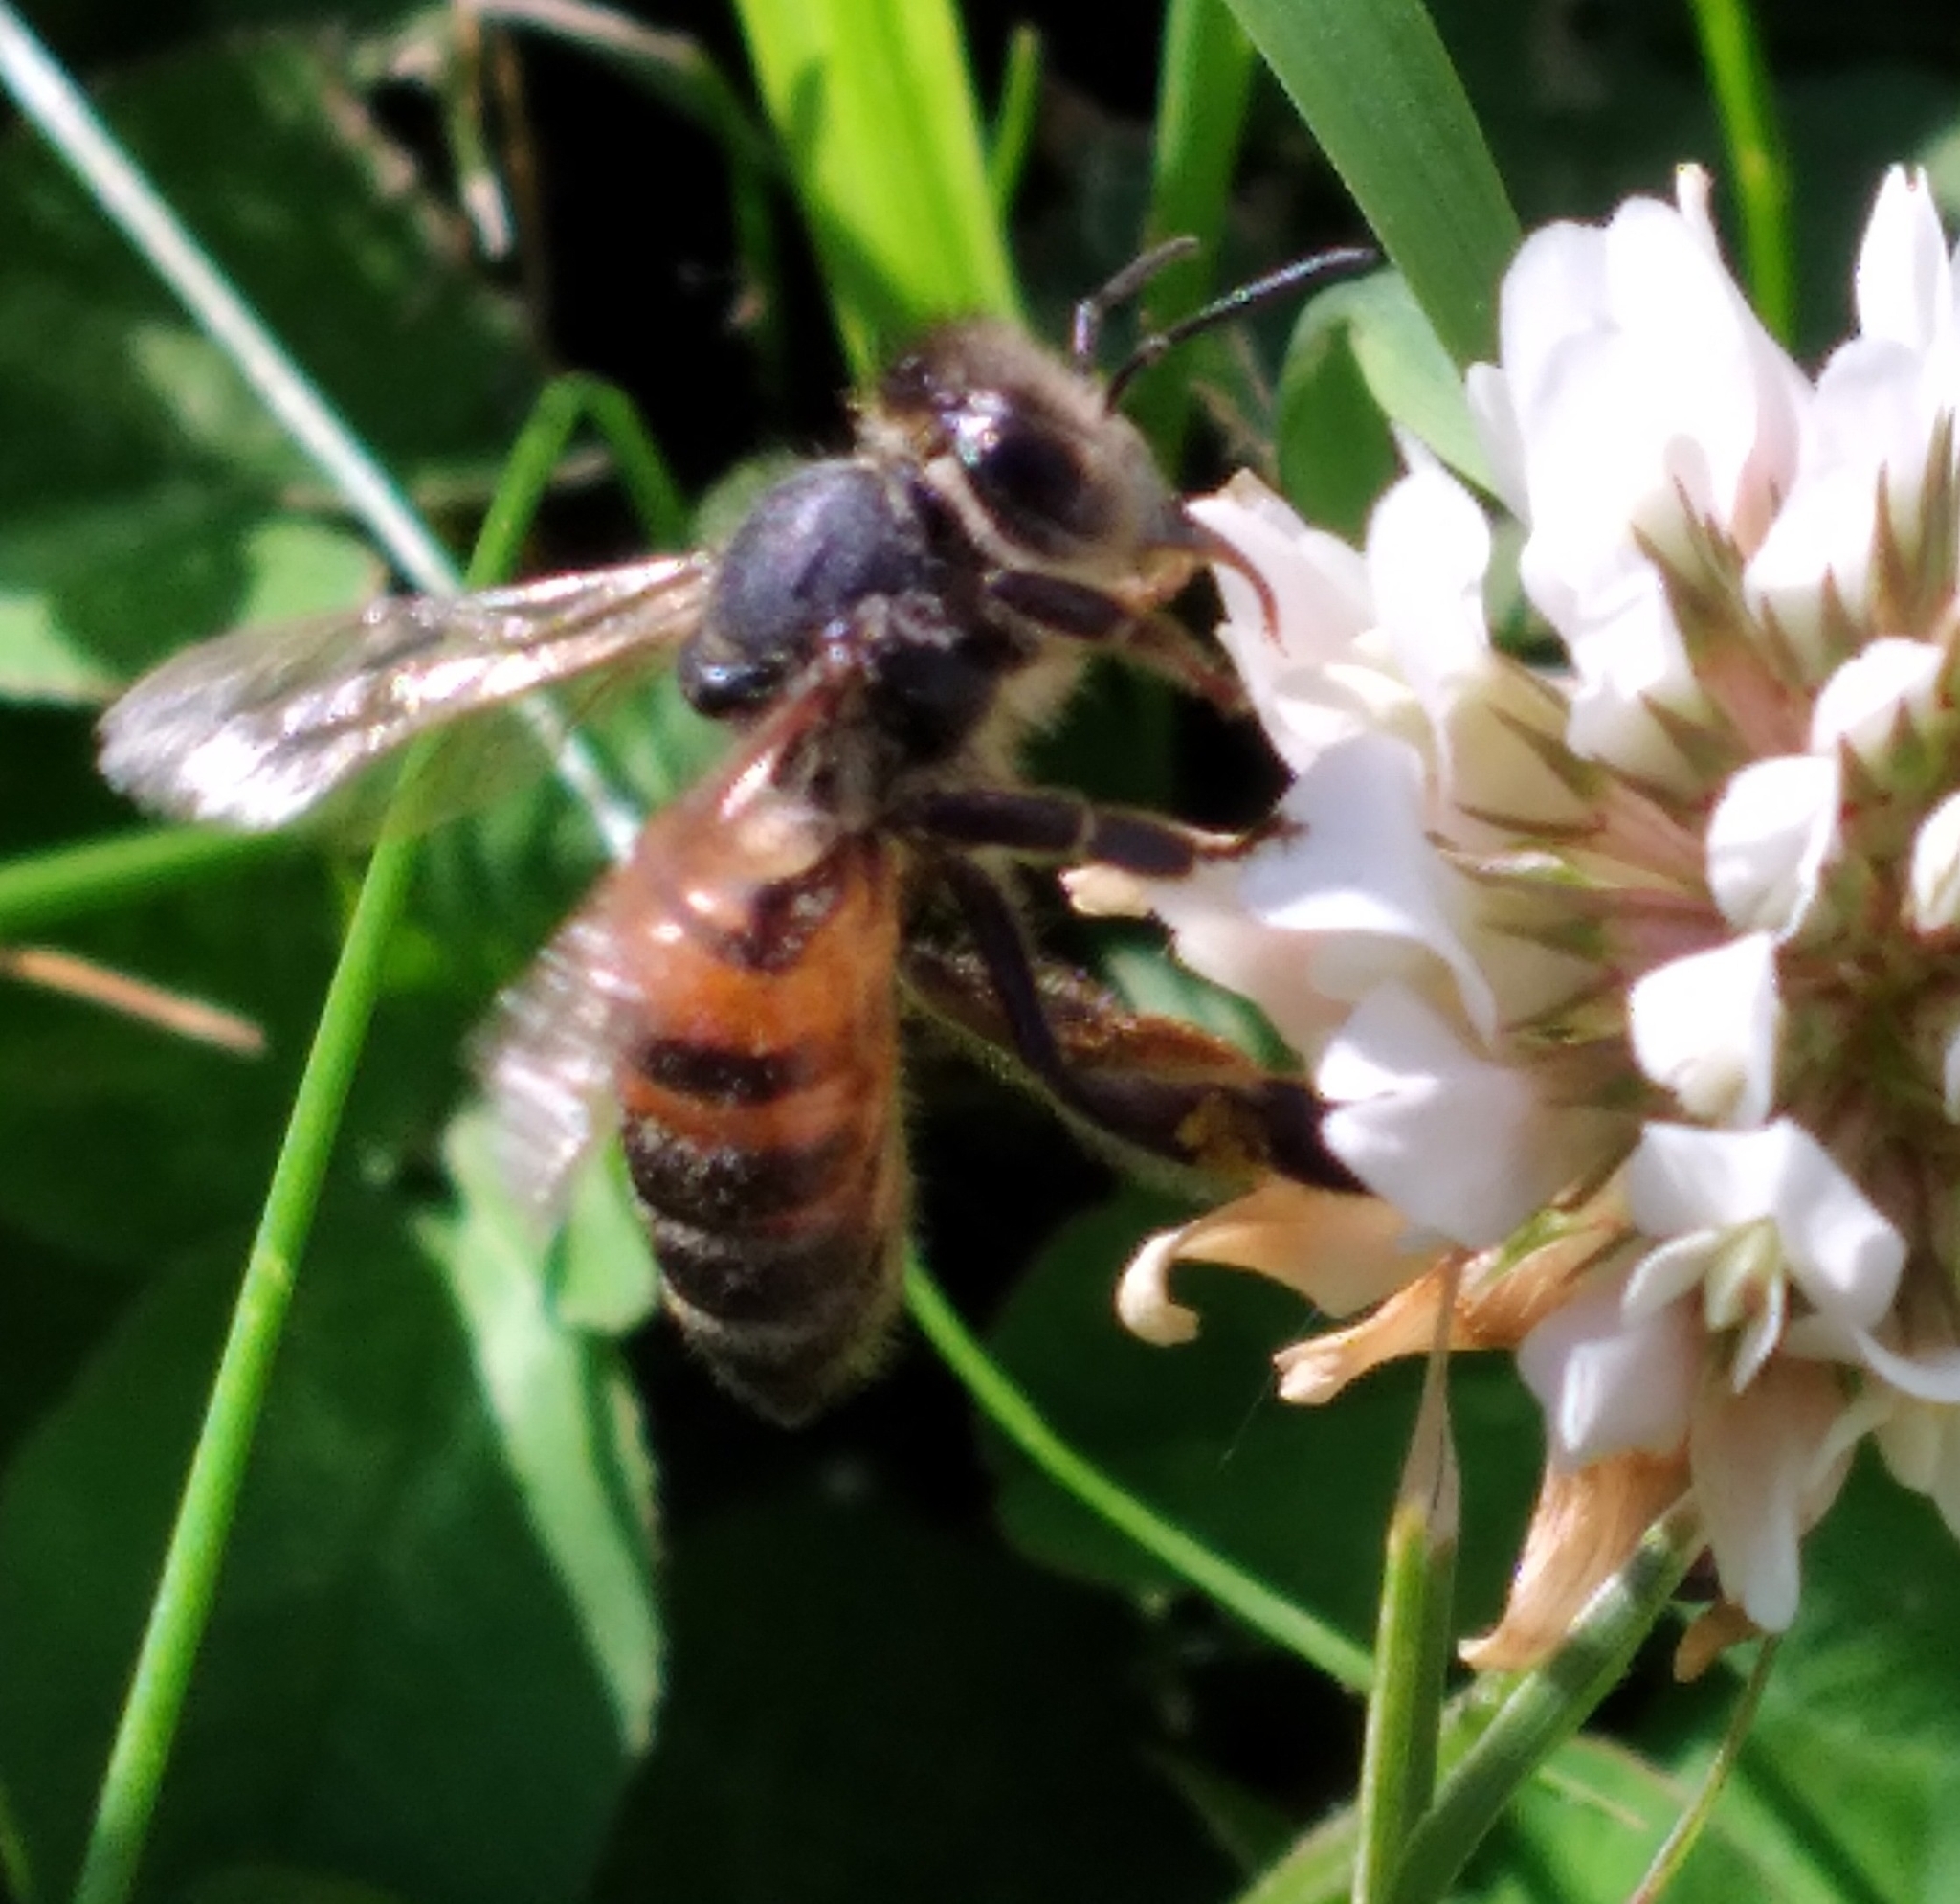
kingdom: Animalia
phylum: Arthropoda
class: Insecta
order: Hymenoptera
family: Apidae
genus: Apis
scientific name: Apis mellifera
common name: Honey bee
